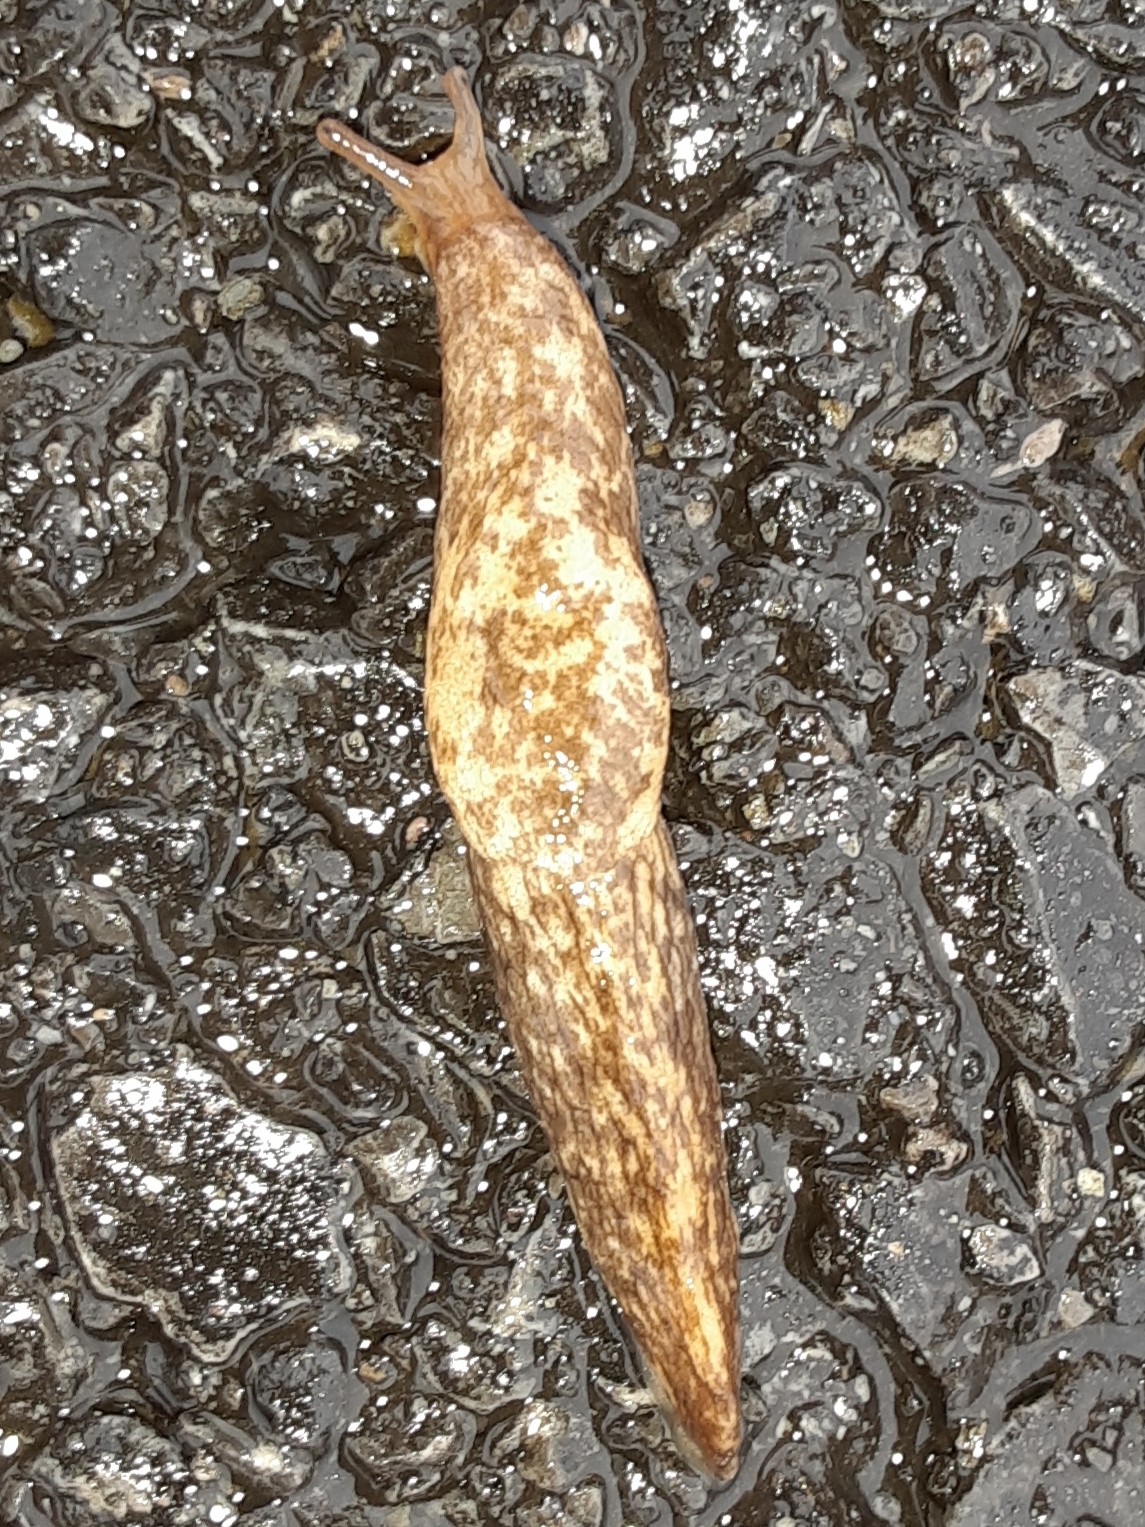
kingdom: Animalia
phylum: Mollusca
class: Gastropoda
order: Stylommatophora
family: Agriolimacidae
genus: Deroceras
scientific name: Deroceras reticulatum
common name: Gray field slug
